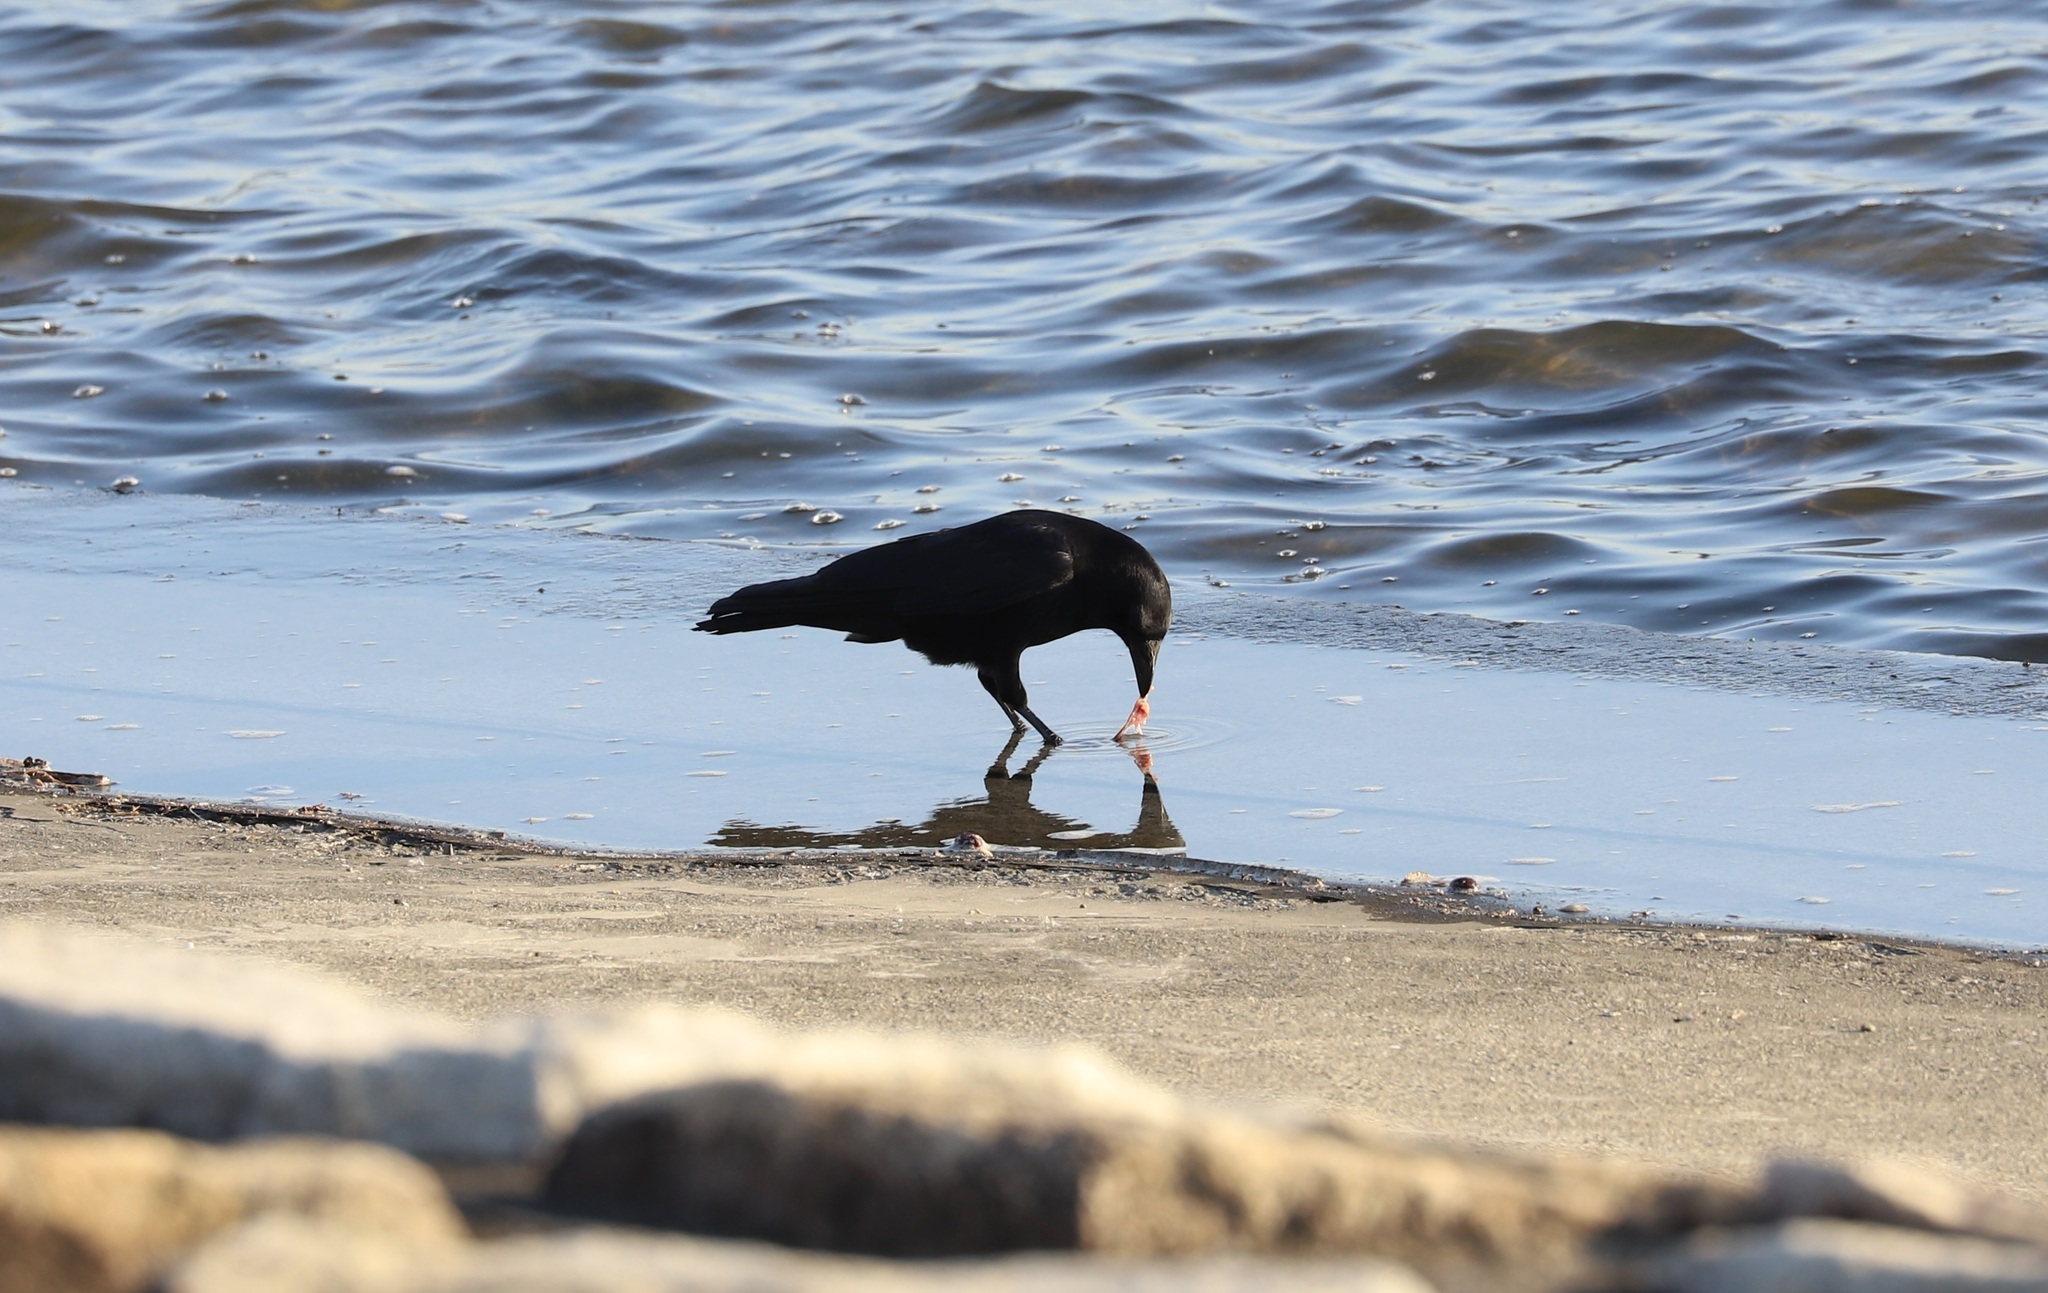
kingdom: Animalia
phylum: Chordata
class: Aves
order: Passeriformes
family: Corvidae
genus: Corvus
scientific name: Corvus corone
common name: Carrion crow
